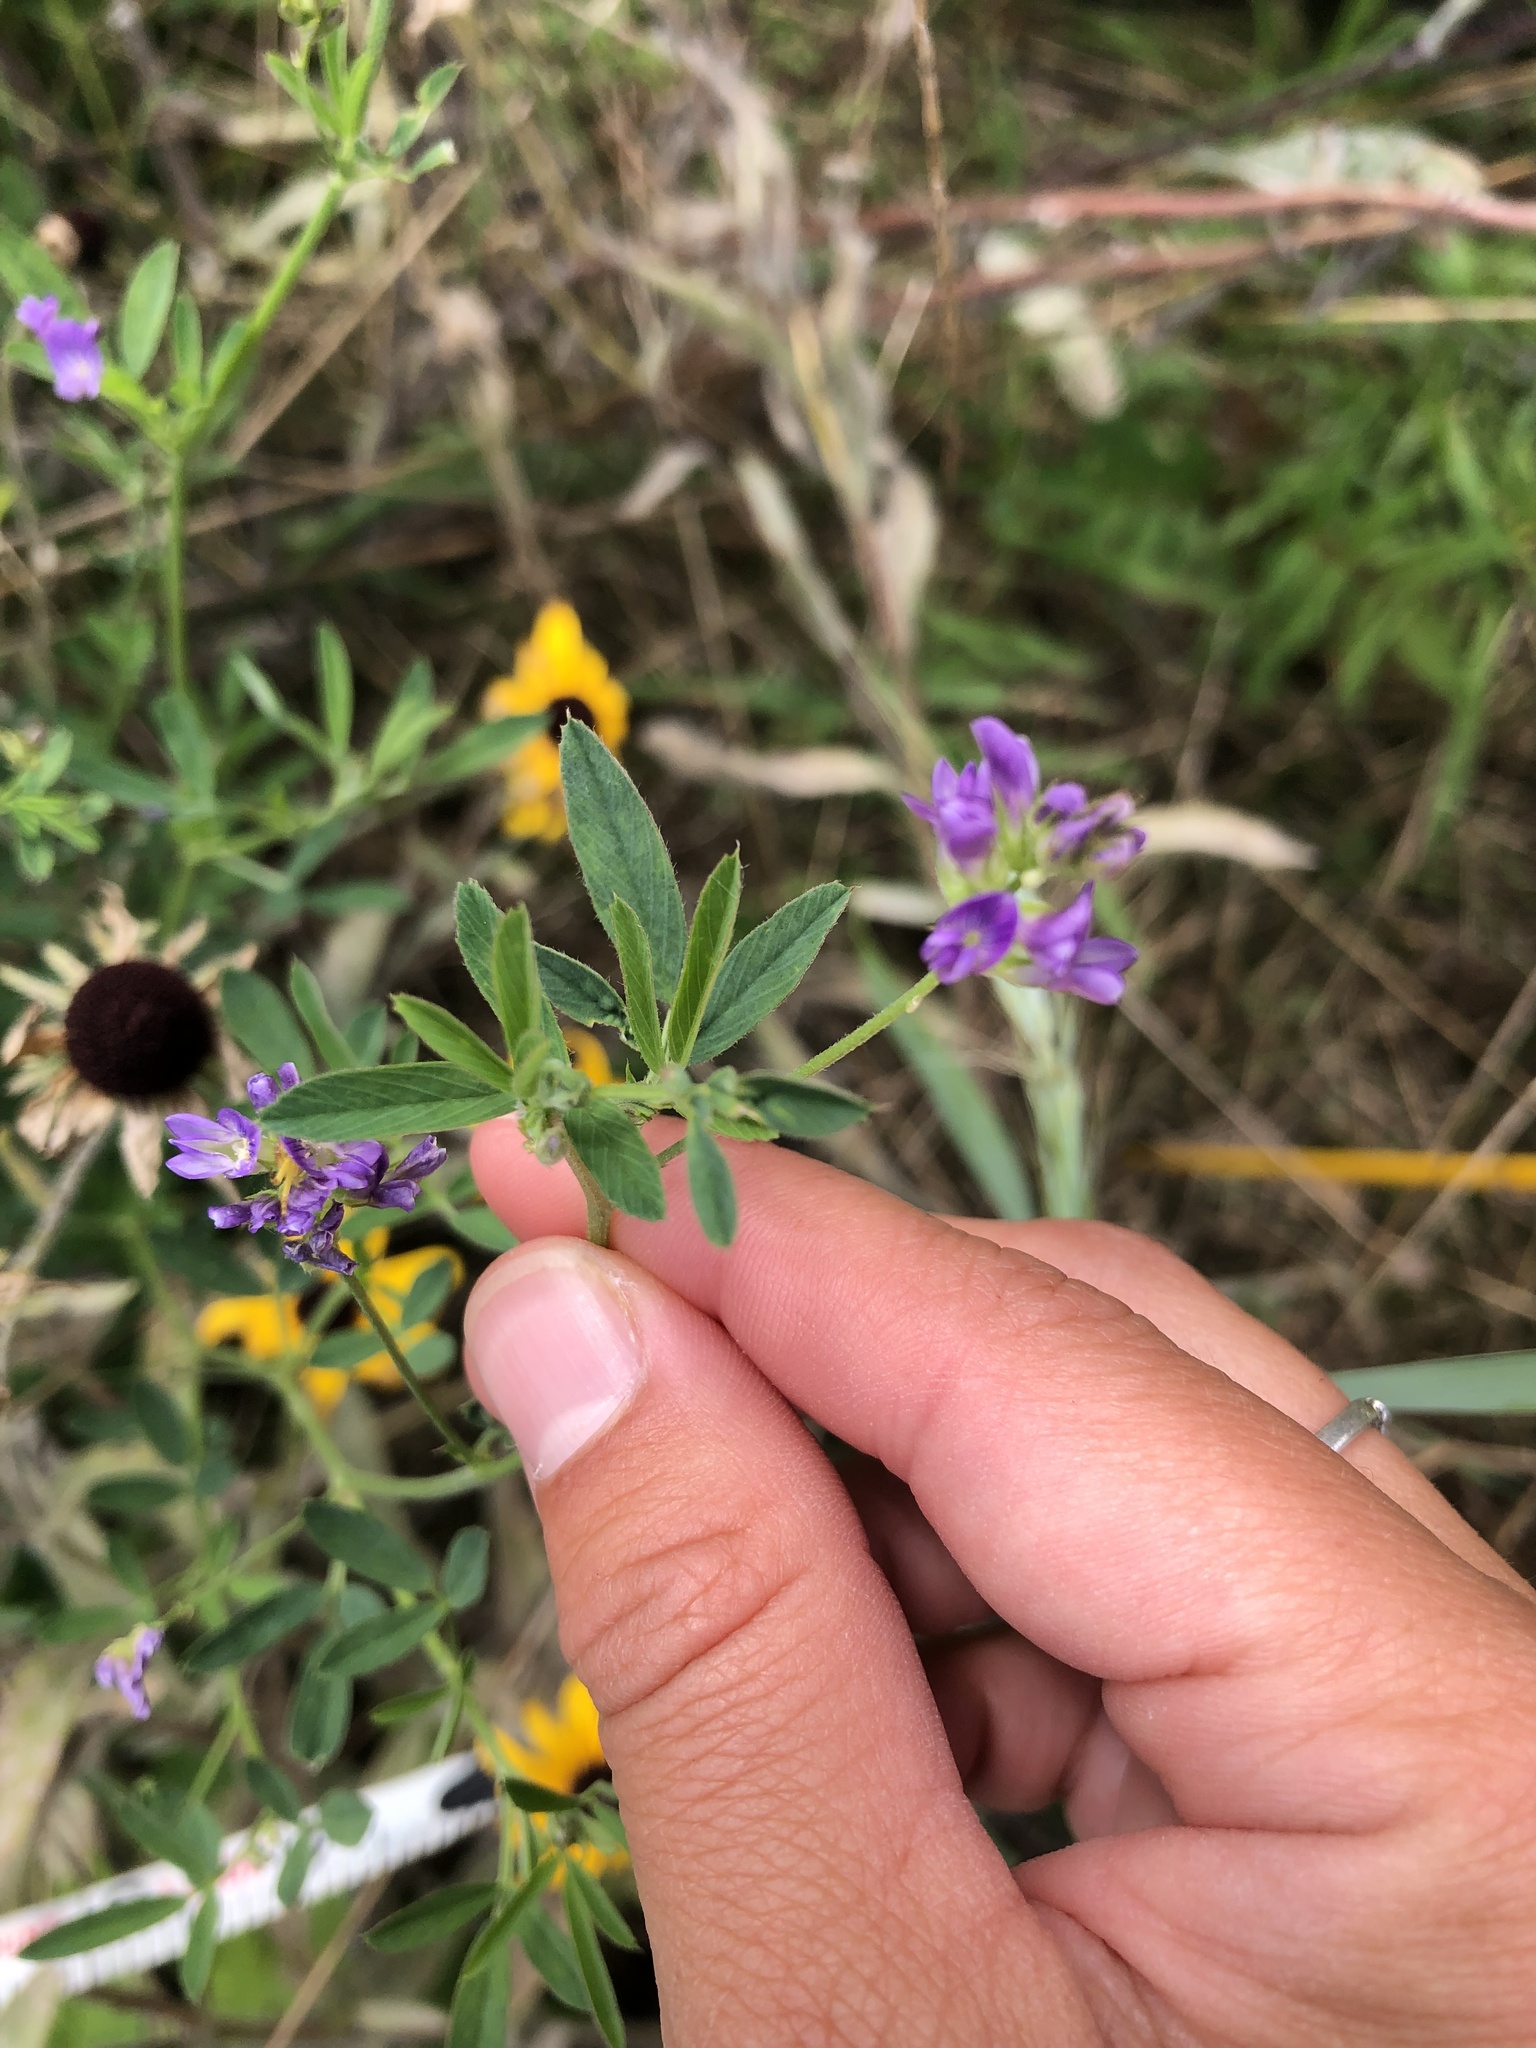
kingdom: Plantae
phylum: Tracheophyta
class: Magnoliopsida
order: Fabales
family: Fabaceae
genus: Medicago
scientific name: Medicago sativa
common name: Alfalfa
